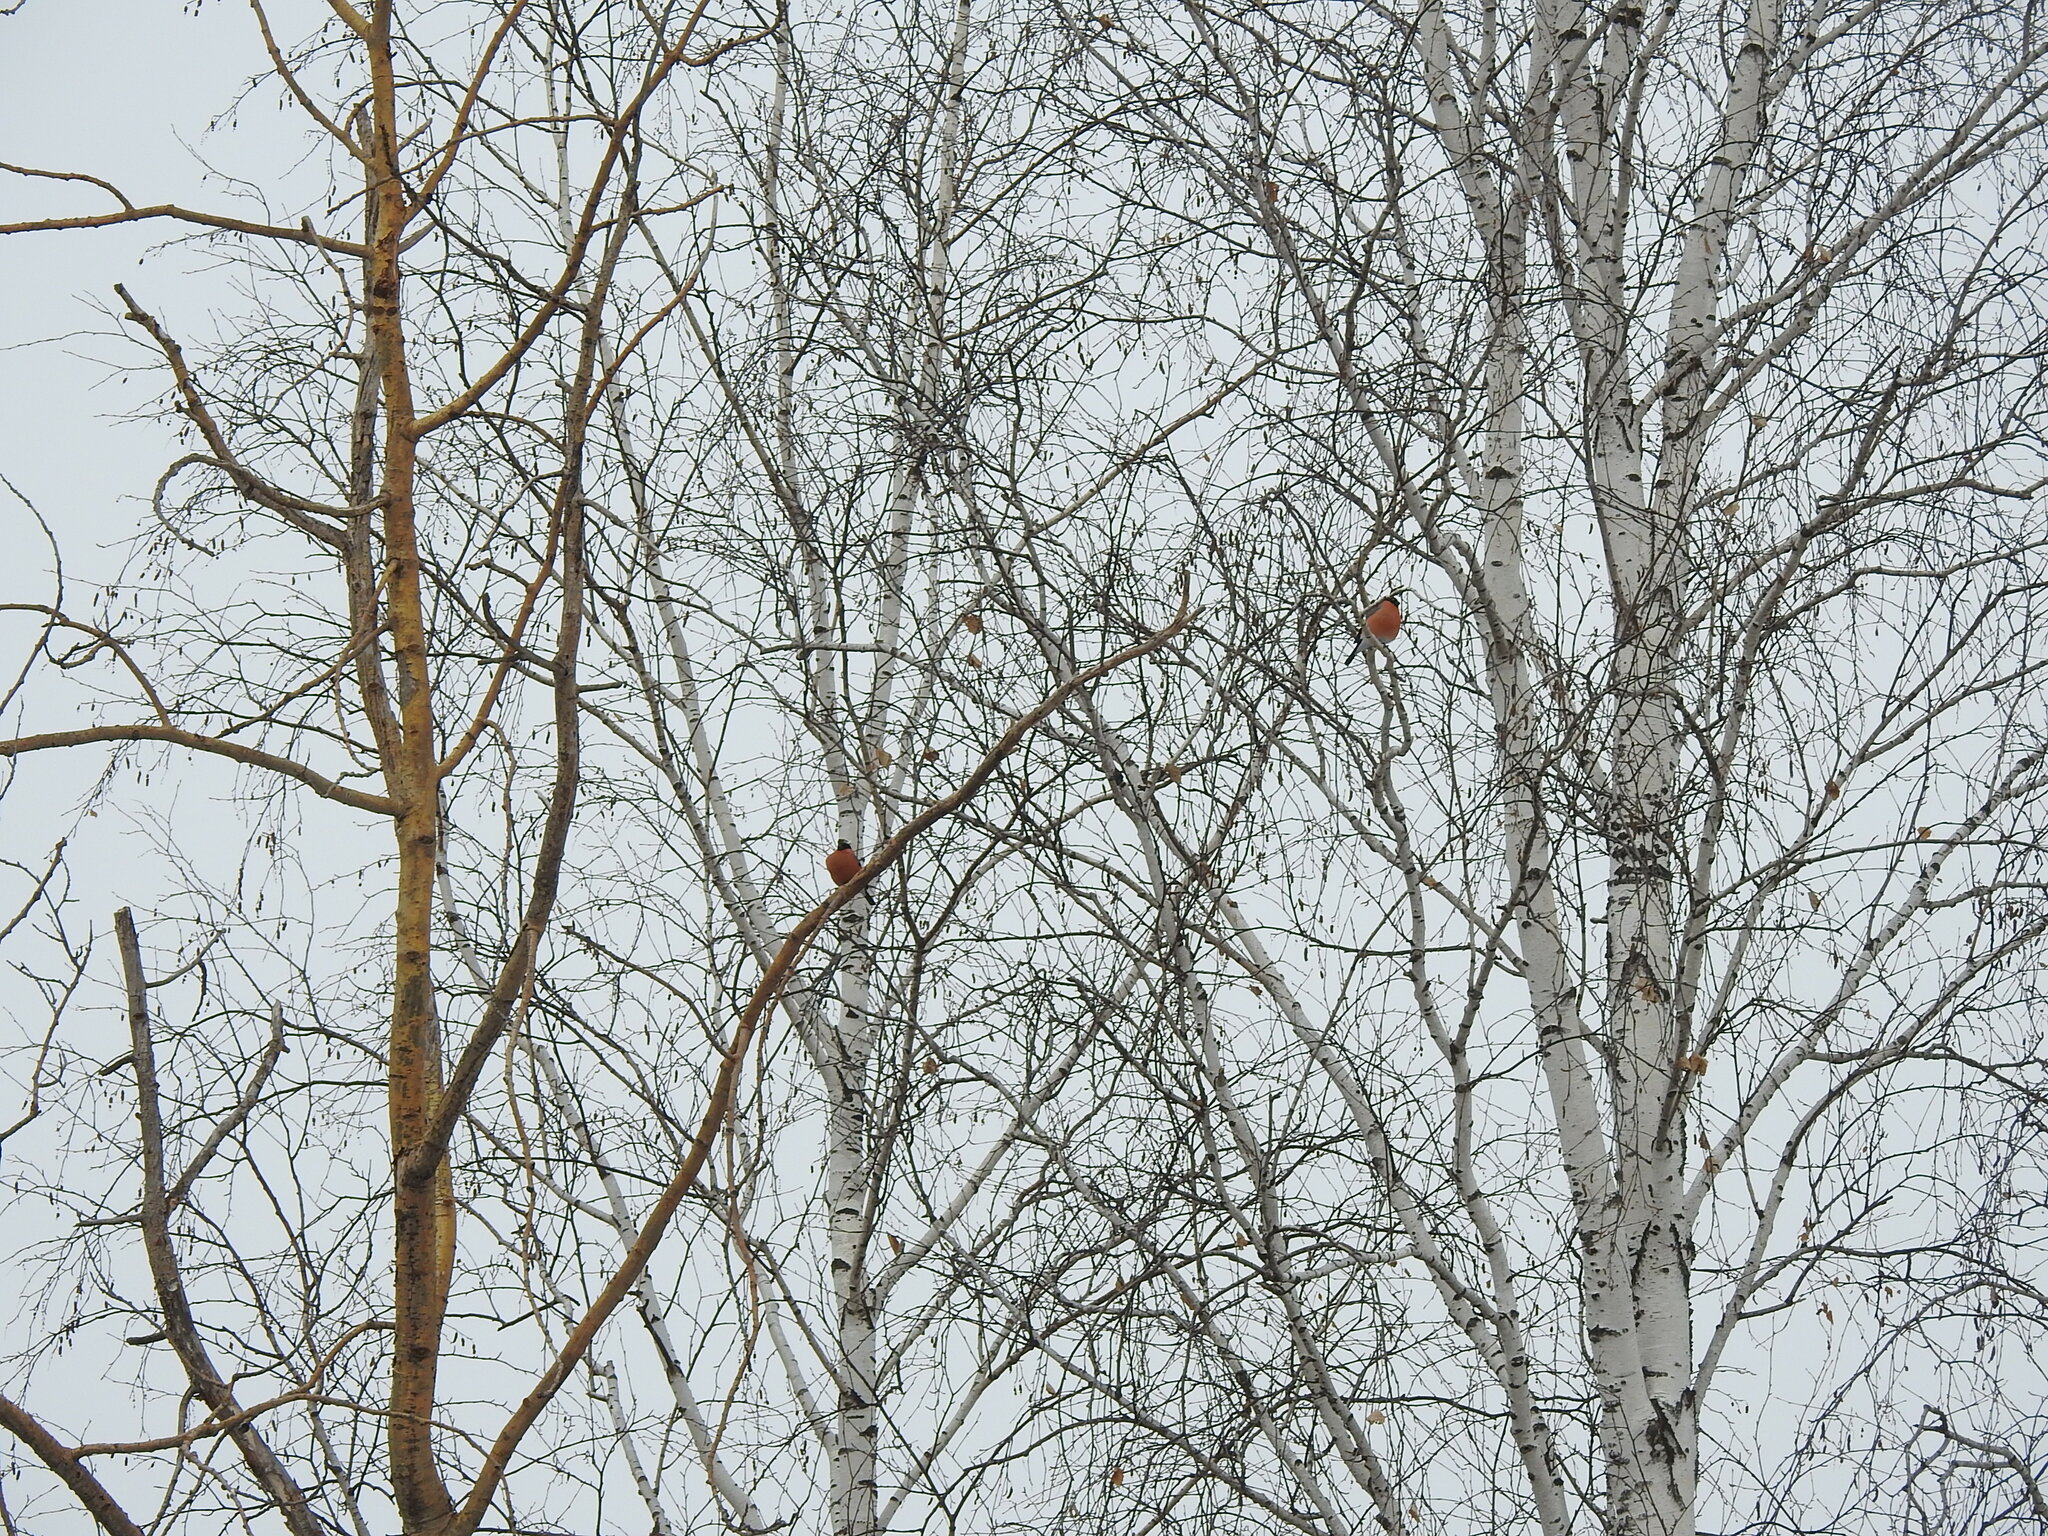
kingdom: Animalia
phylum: Chordata
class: Aves
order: Passeriformes
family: Fringillidae
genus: Pyrrhula
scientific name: Pyrrhula pyrrhula
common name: Eurasian bullfinch
